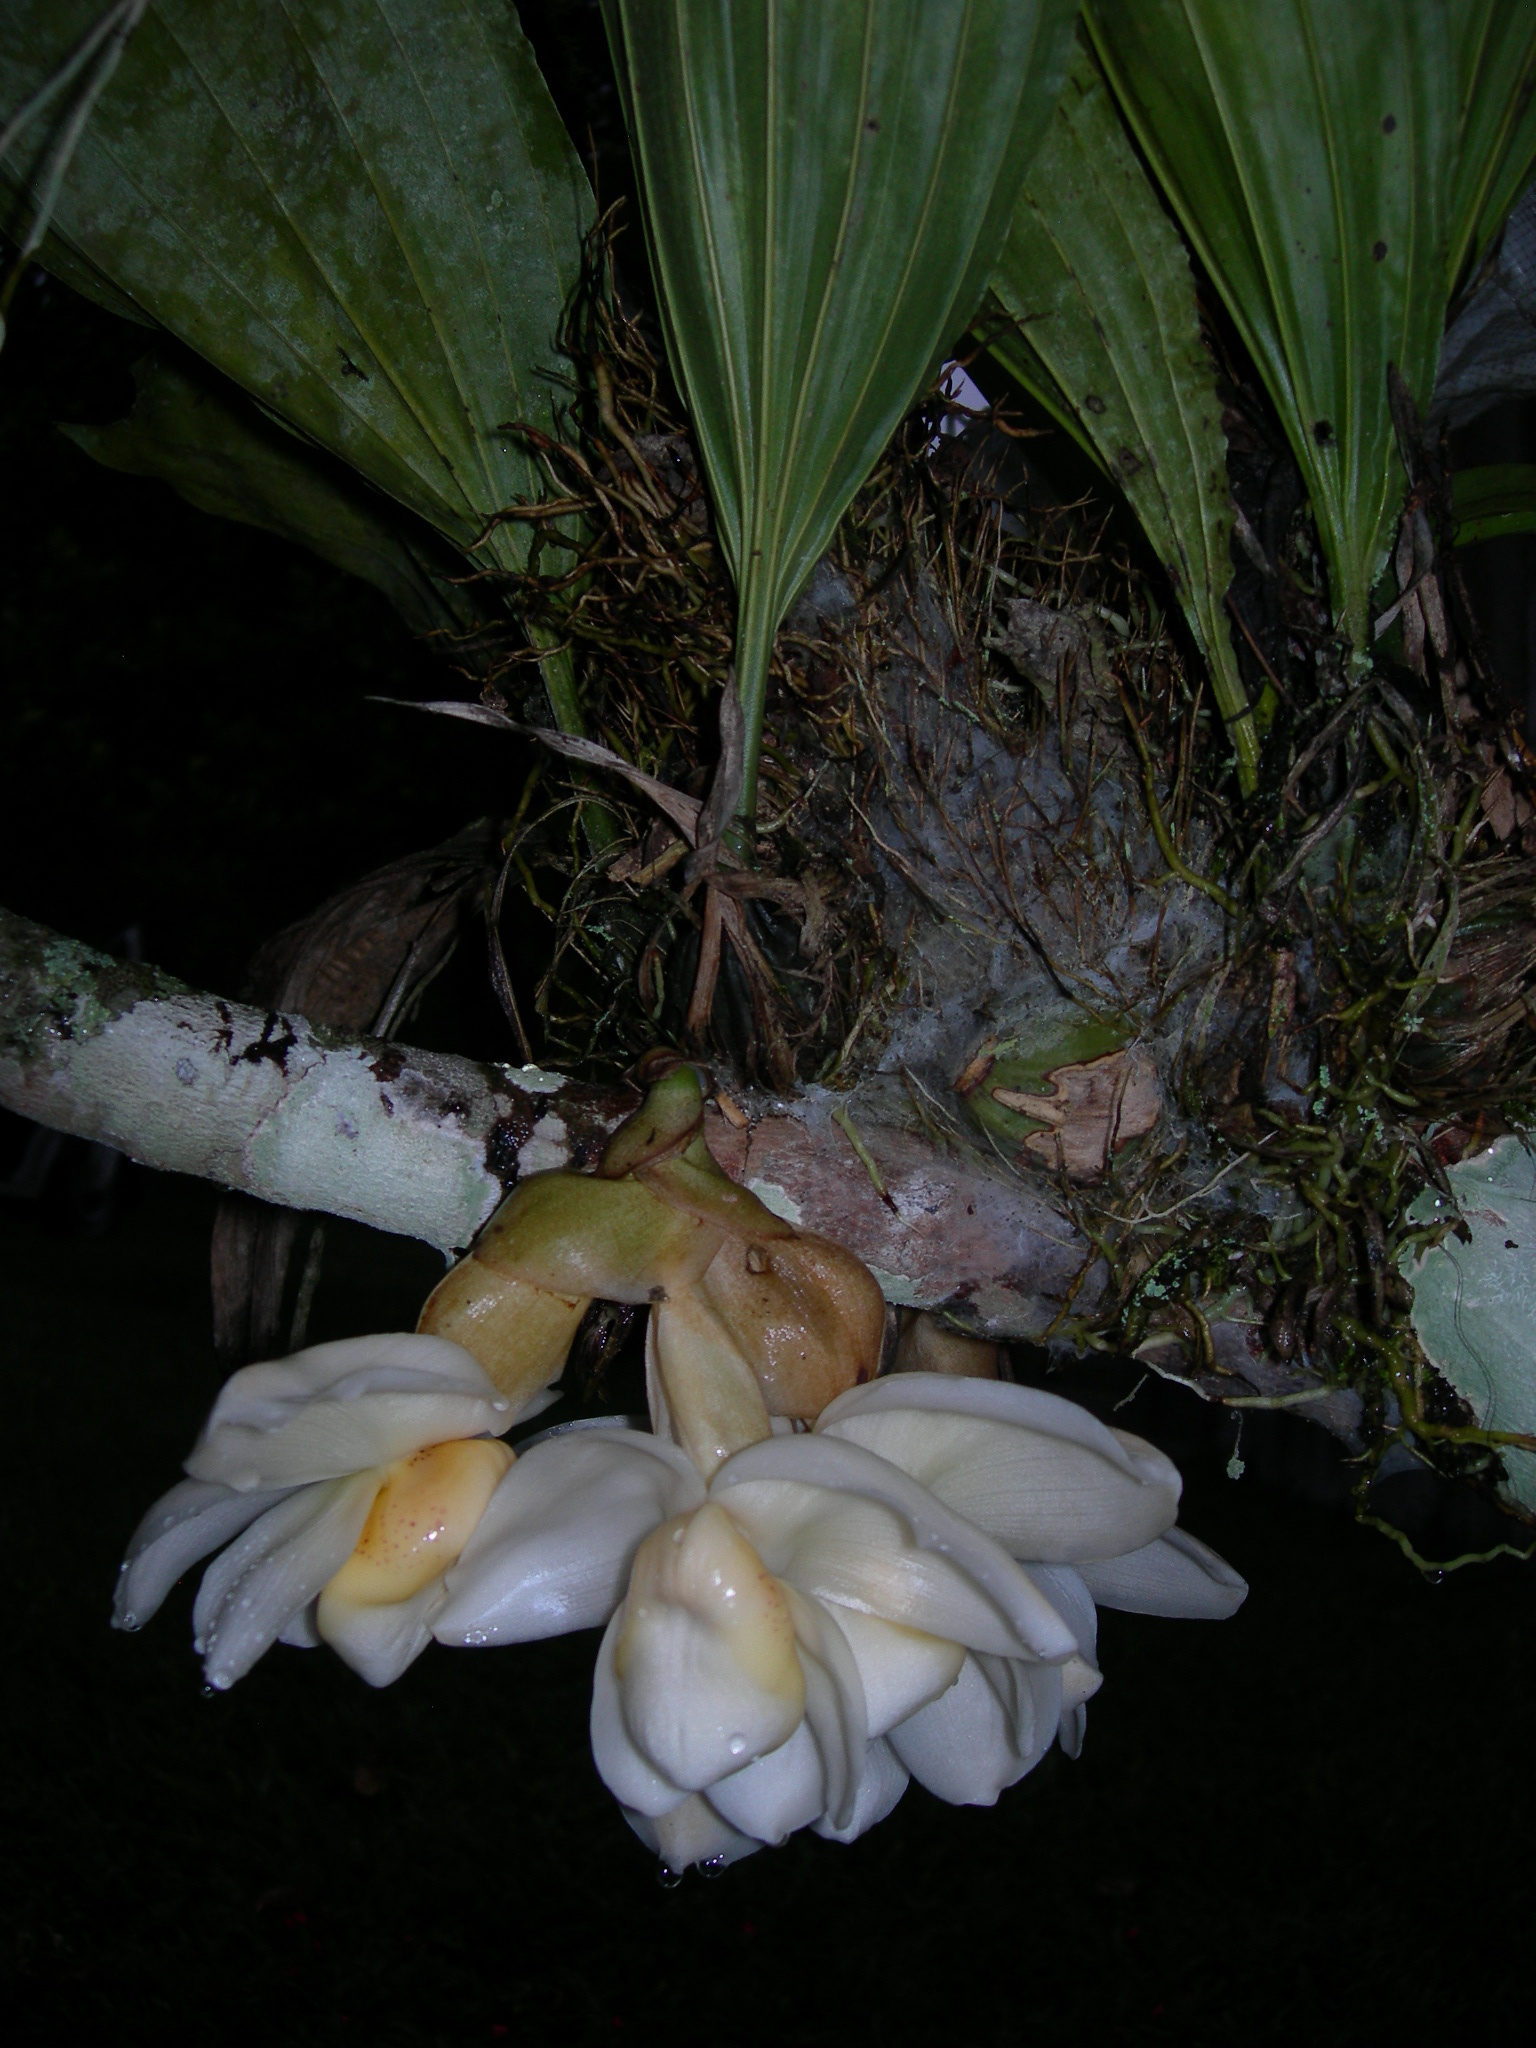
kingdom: Plantae
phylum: Tracheophyta
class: Liliopsida
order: Asparagales
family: Orchidaceae
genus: Stanhopea
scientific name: Stanhopea ecornuta
